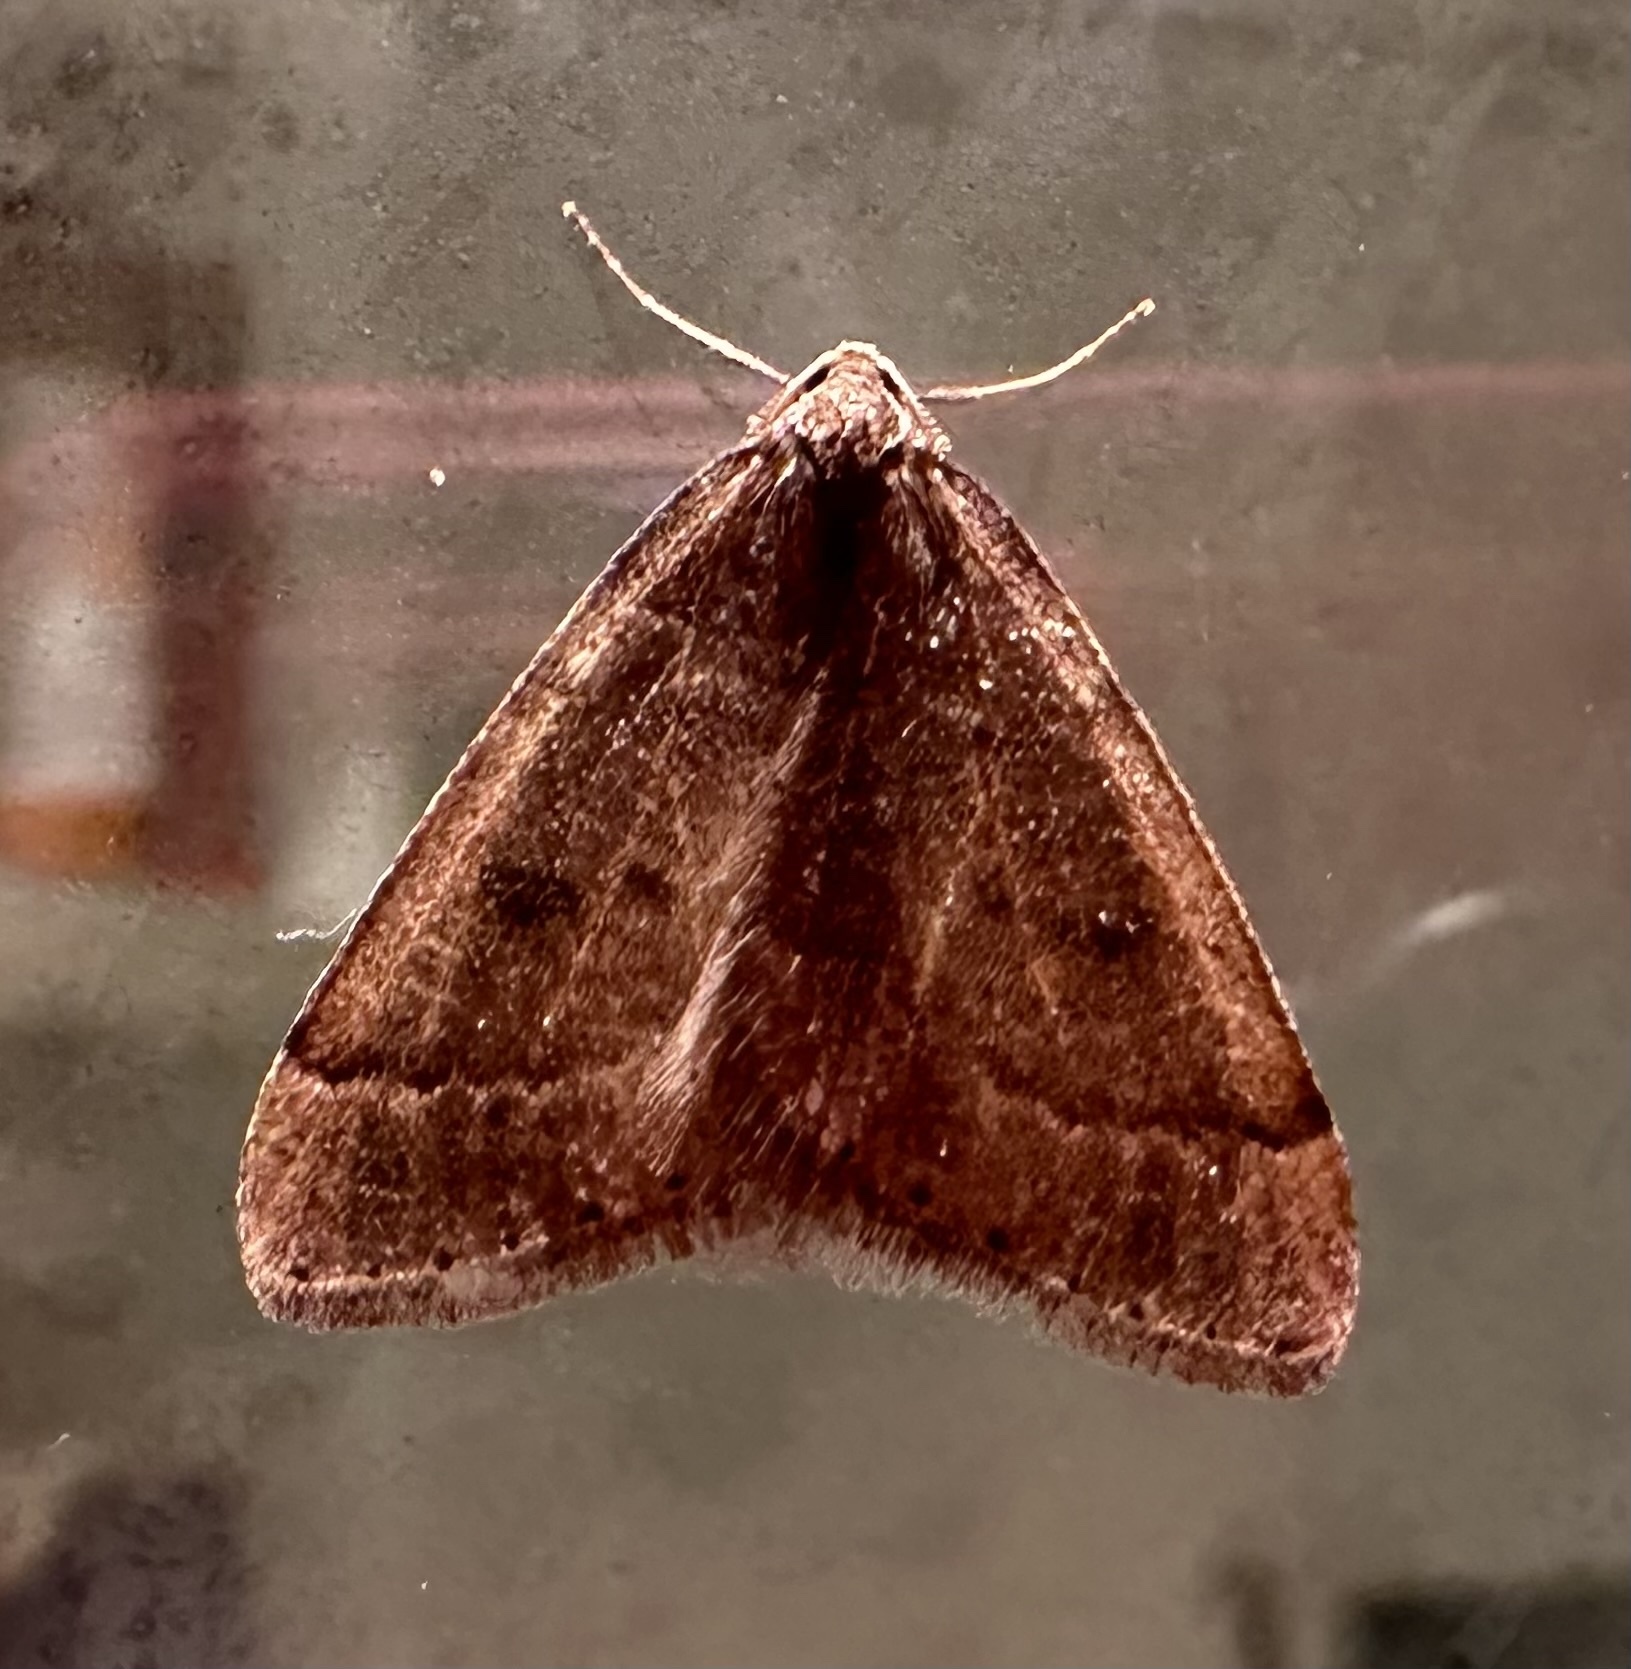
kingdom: Animalia
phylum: Arthropoda
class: Insecta
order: Lepidoptera
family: Geometridae
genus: Theria
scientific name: Theria primaria
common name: Early moth
